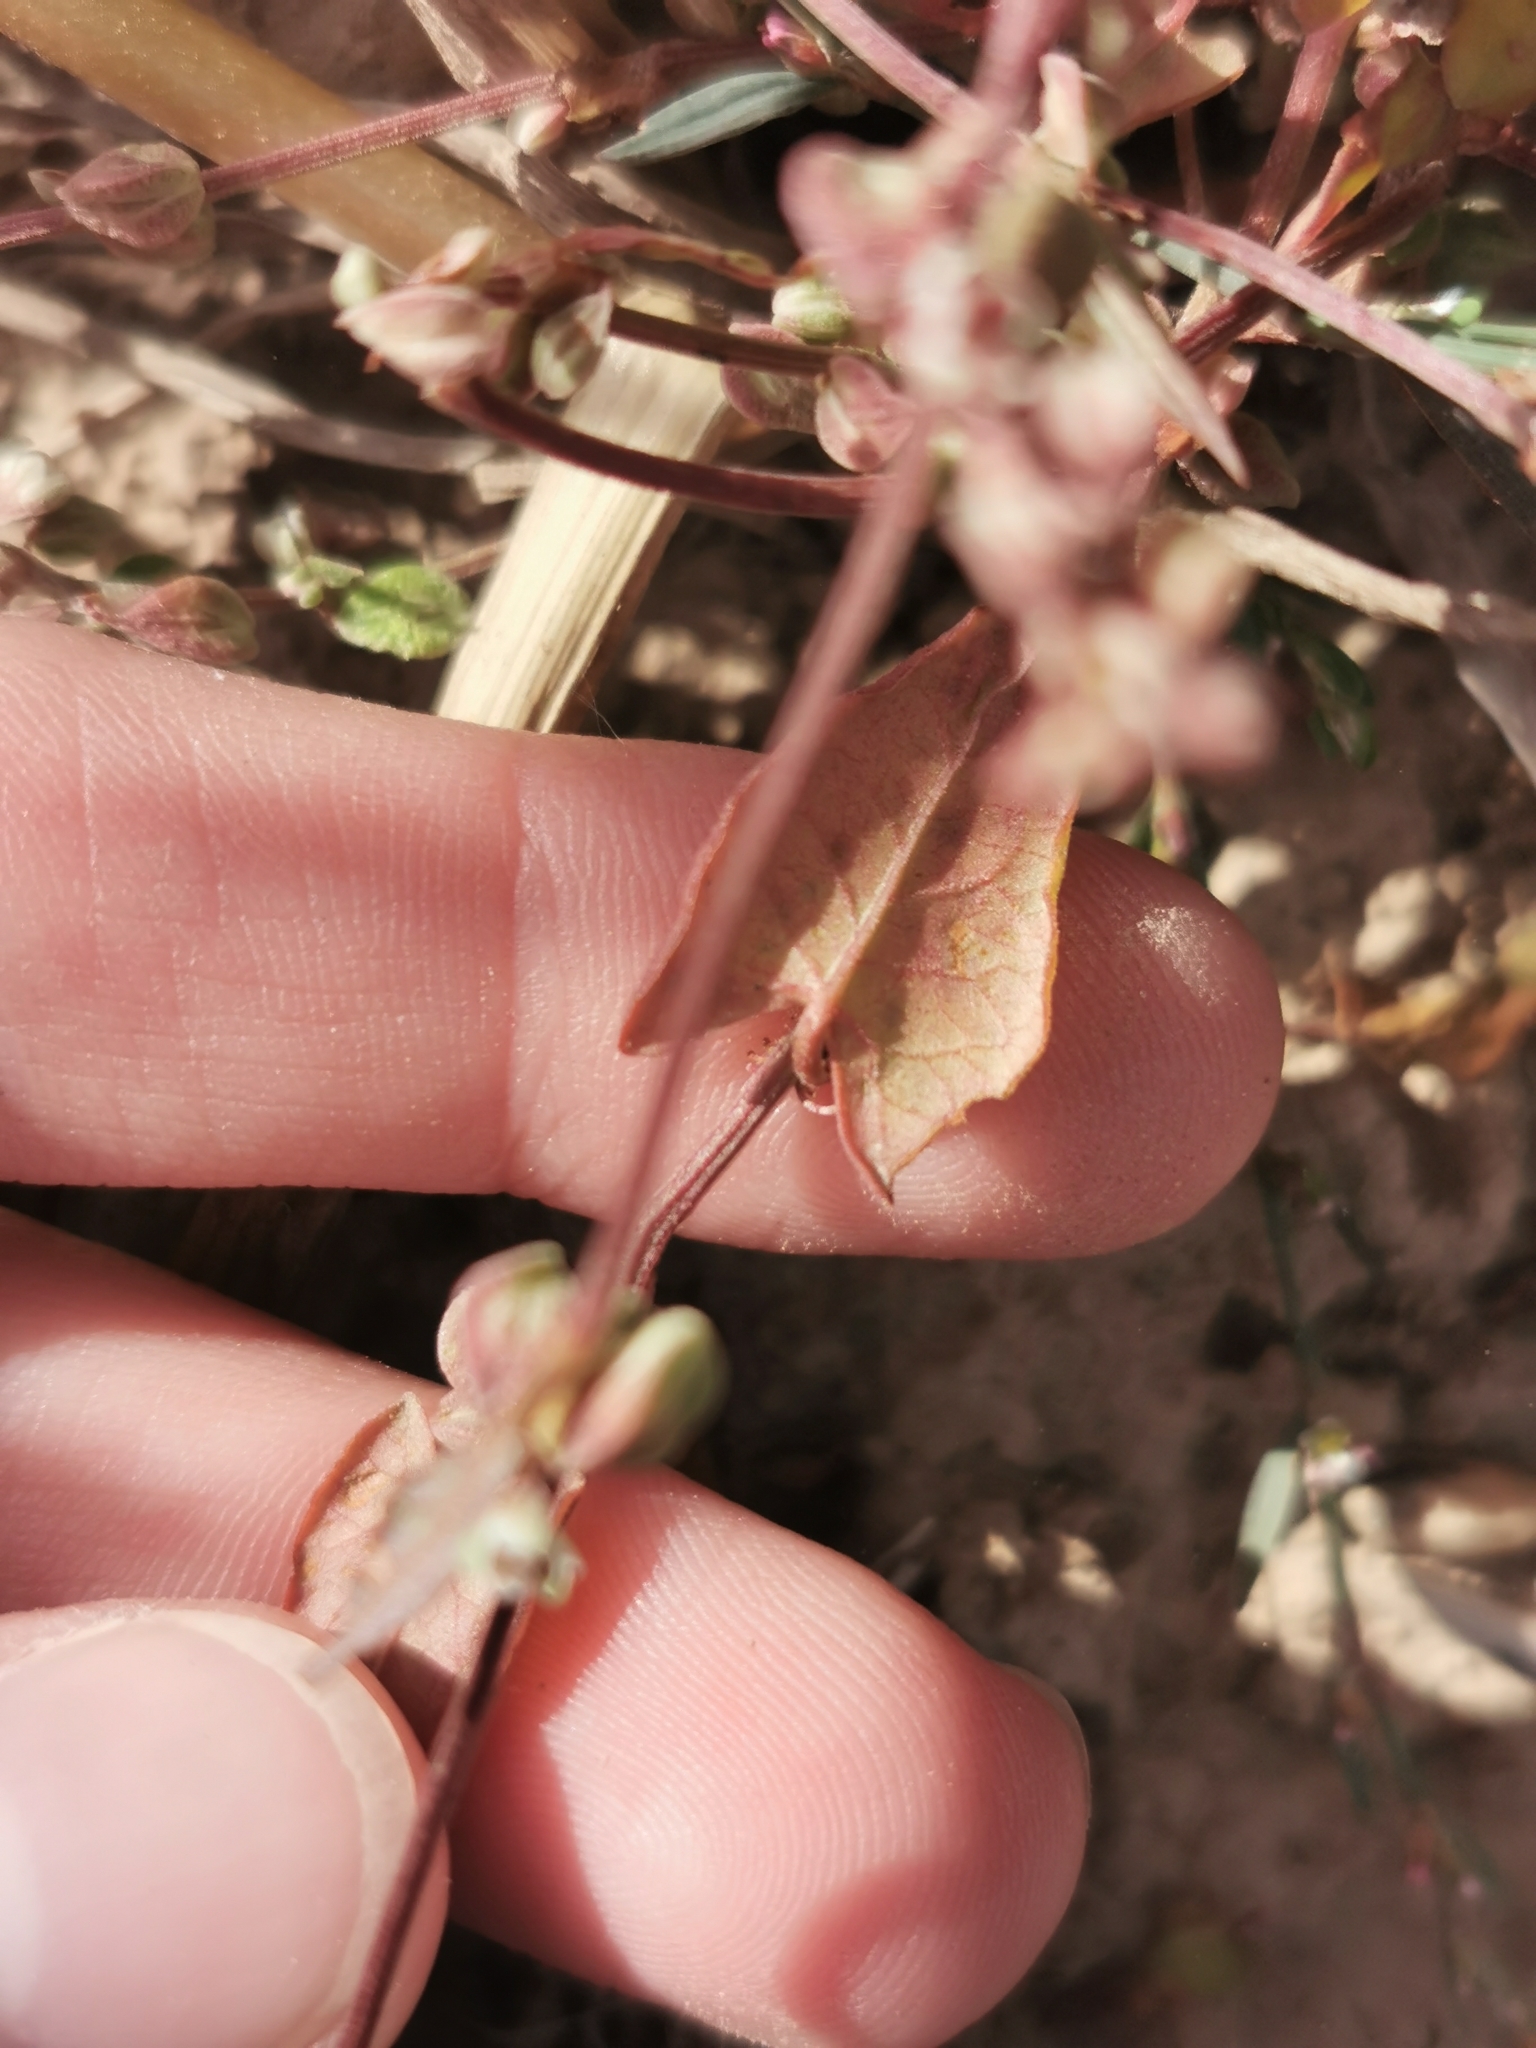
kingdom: Plantae
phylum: Tracheophyta
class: Magnoliopsida
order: Caryophyllales
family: Polygonaceae
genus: Fallopia
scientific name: Fallopia convolvulus
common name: Black bindweed
